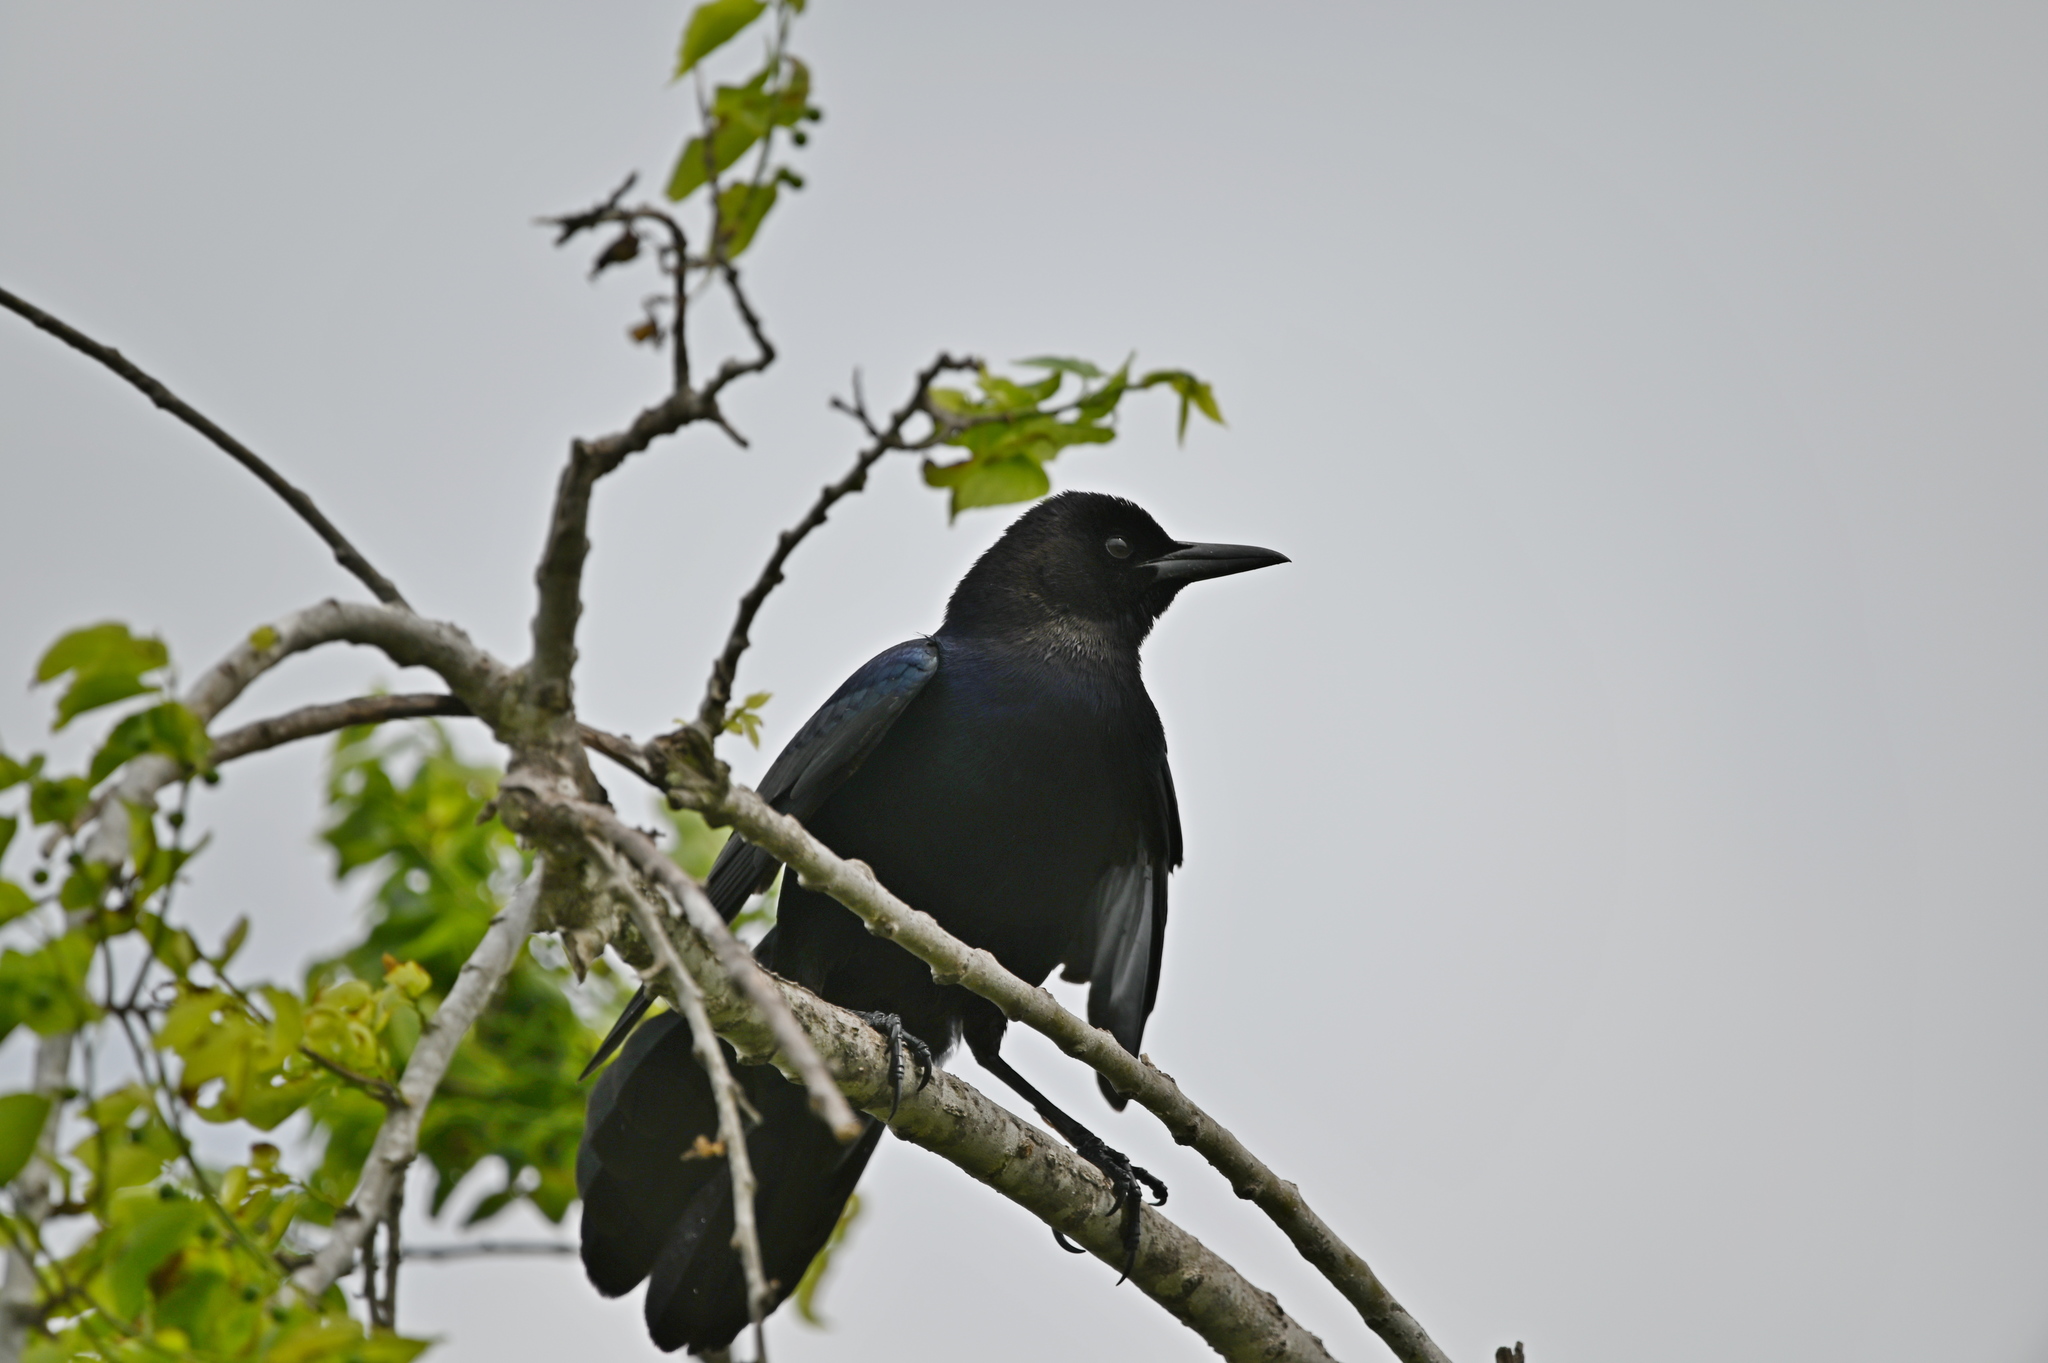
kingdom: Animalia
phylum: Chordata
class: Aves
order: Passeriformes
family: Icteridae
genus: Quiscalus
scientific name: Quiscalus major
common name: Boat-tailed grackle
